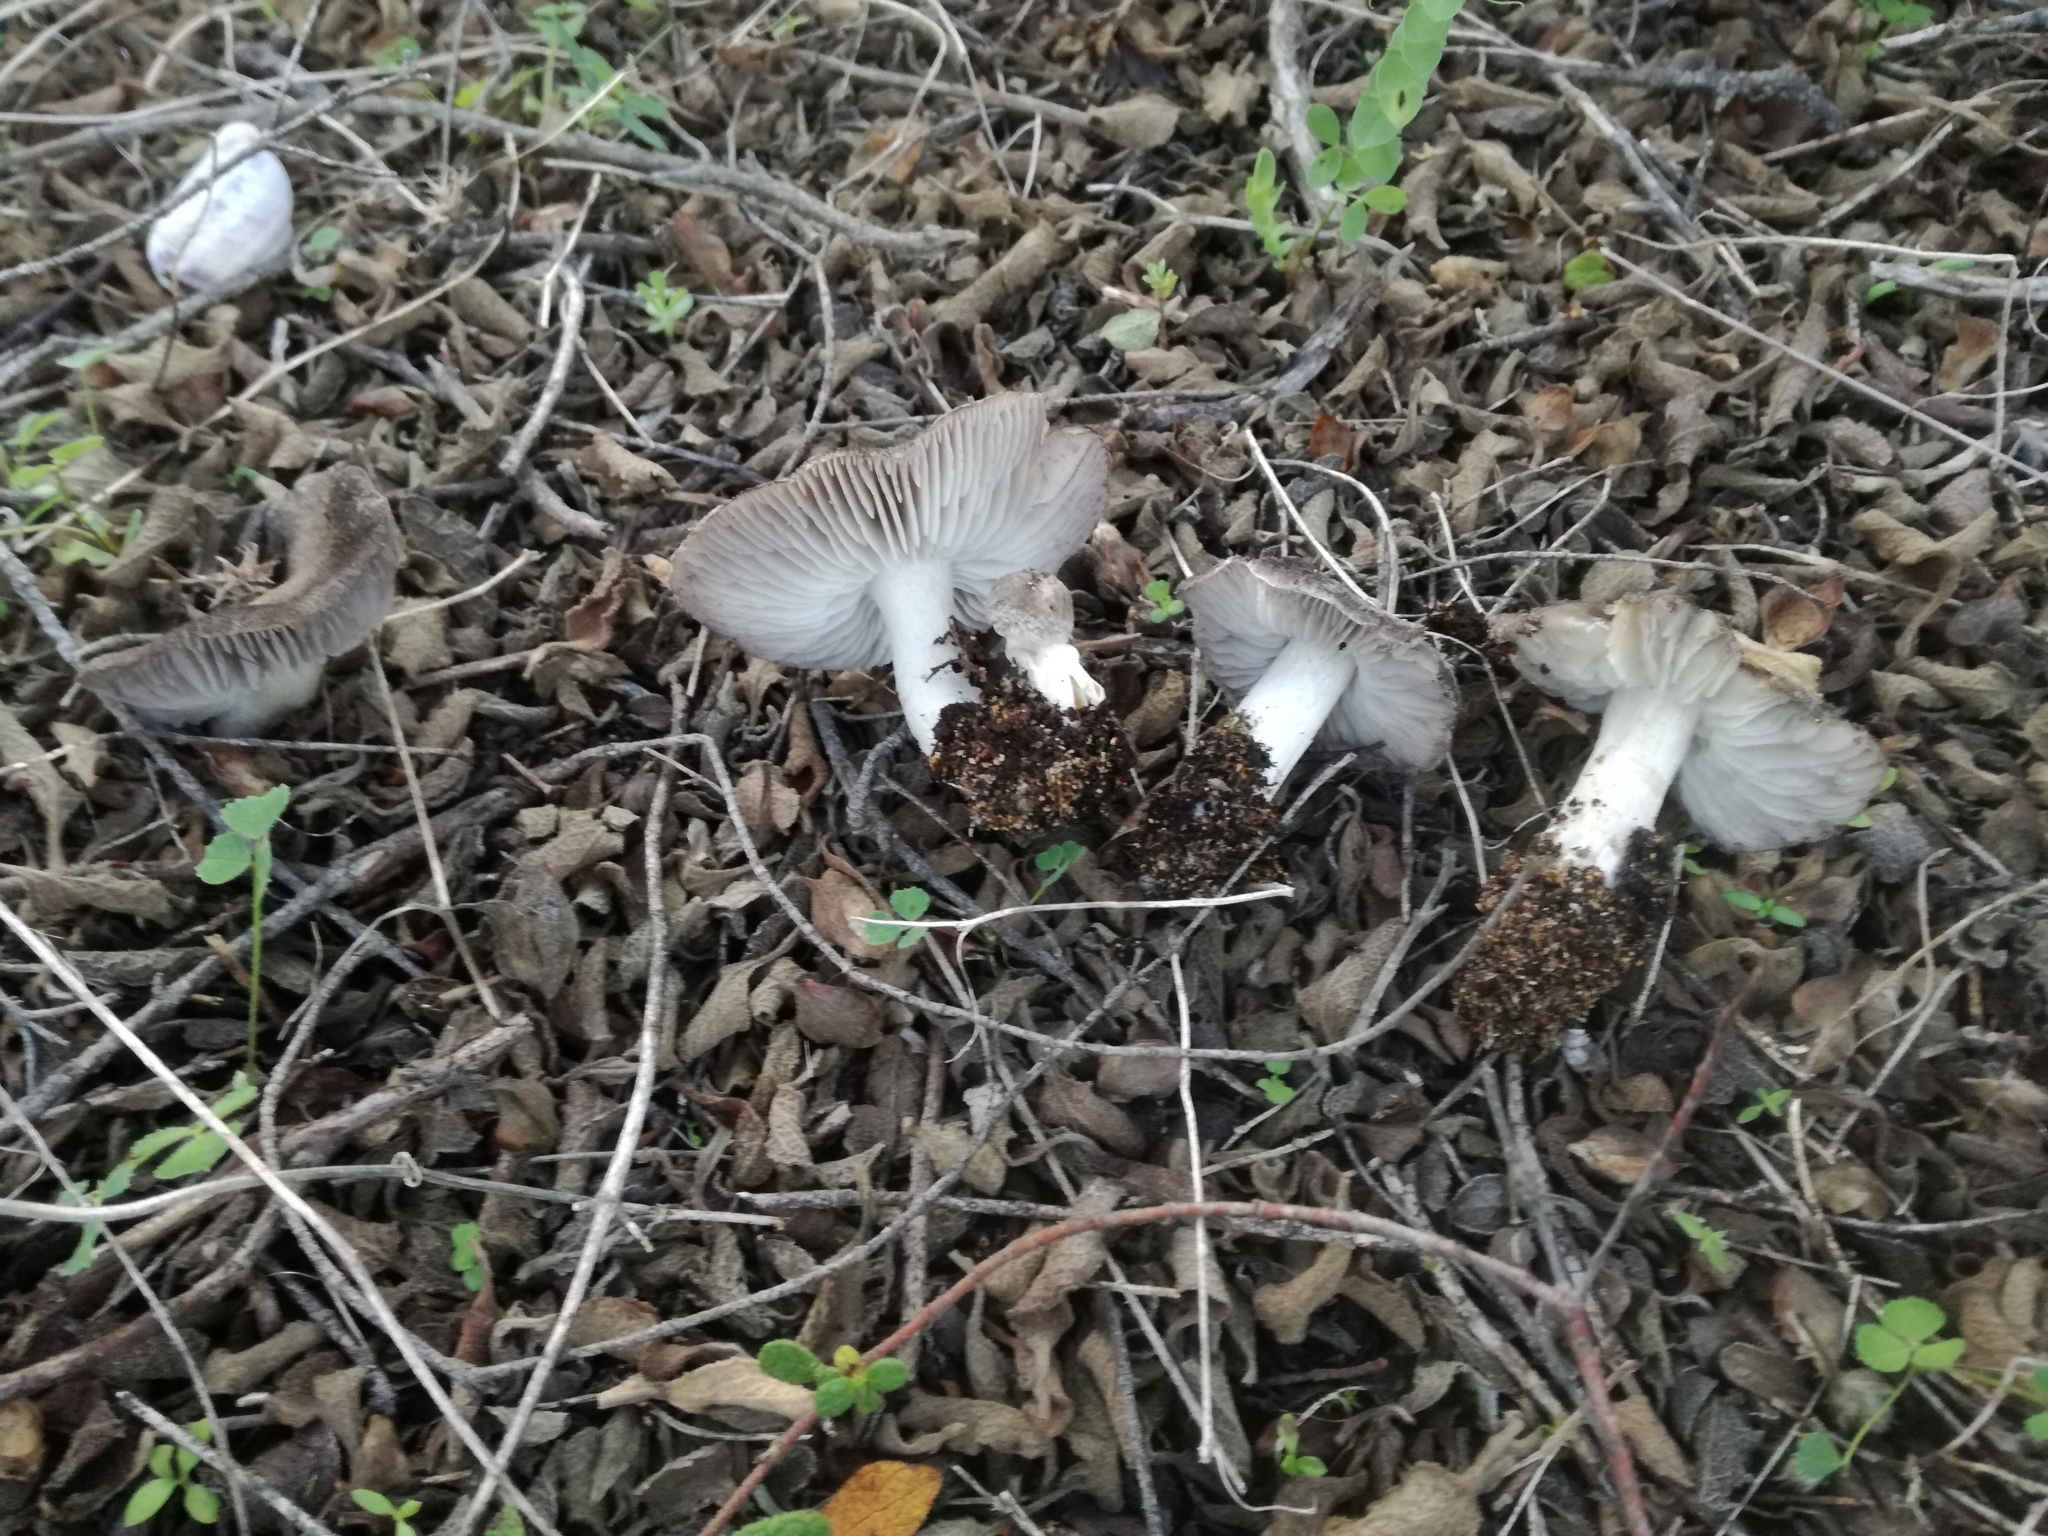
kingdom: Fungi
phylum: Basidiomycota
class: Agaricomycetes
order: Agaricales
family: Tricholomataceae
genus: Tricholoma
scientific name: Tricholoma terreum
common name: Grey knight
